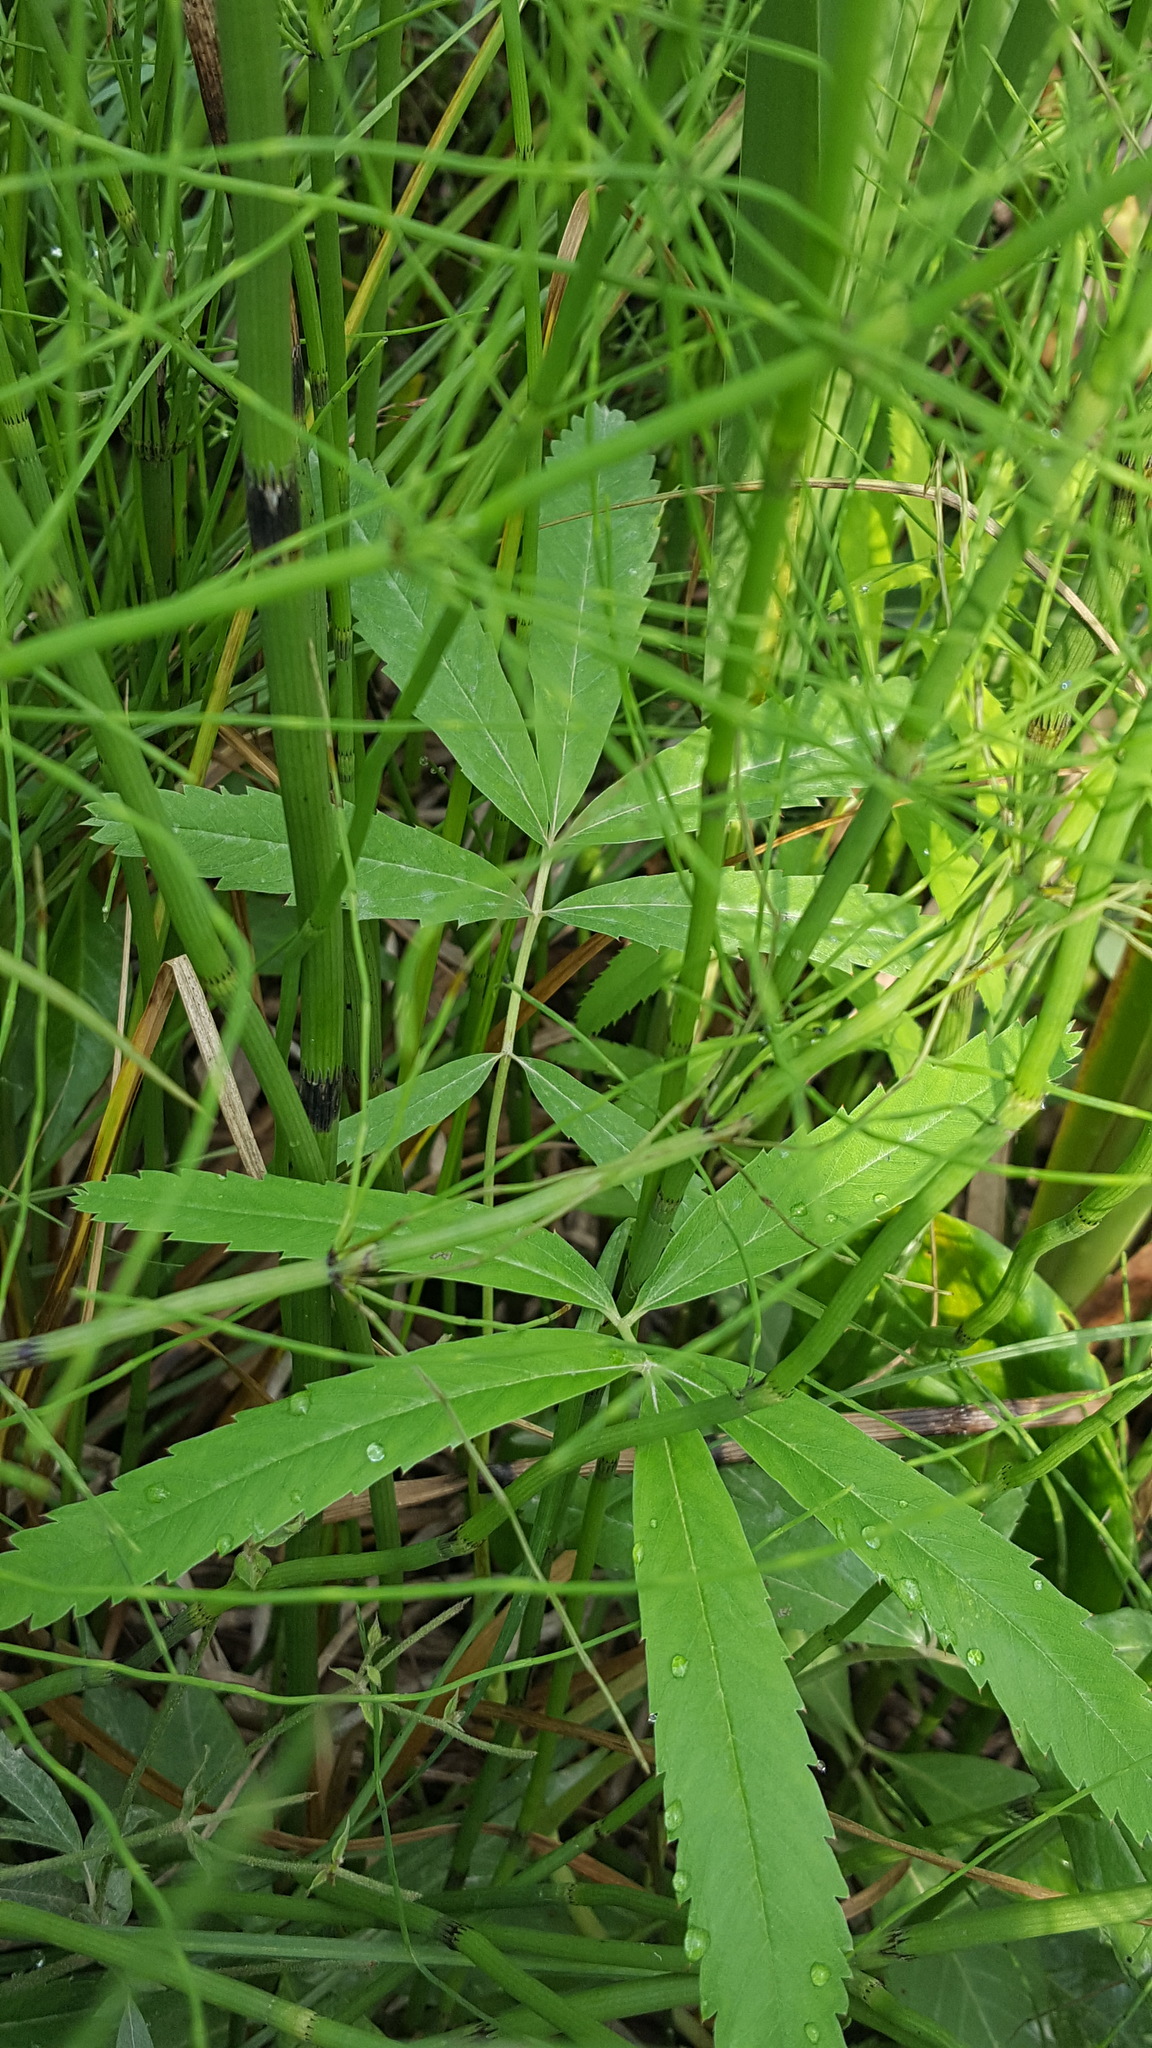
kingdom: Plantae
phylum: Tracheophyta
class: Magnoliopsida
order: Rosales
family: Rosaceae
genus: Comarum
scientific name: Comarum palustre
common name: Marsh cinquefoil
